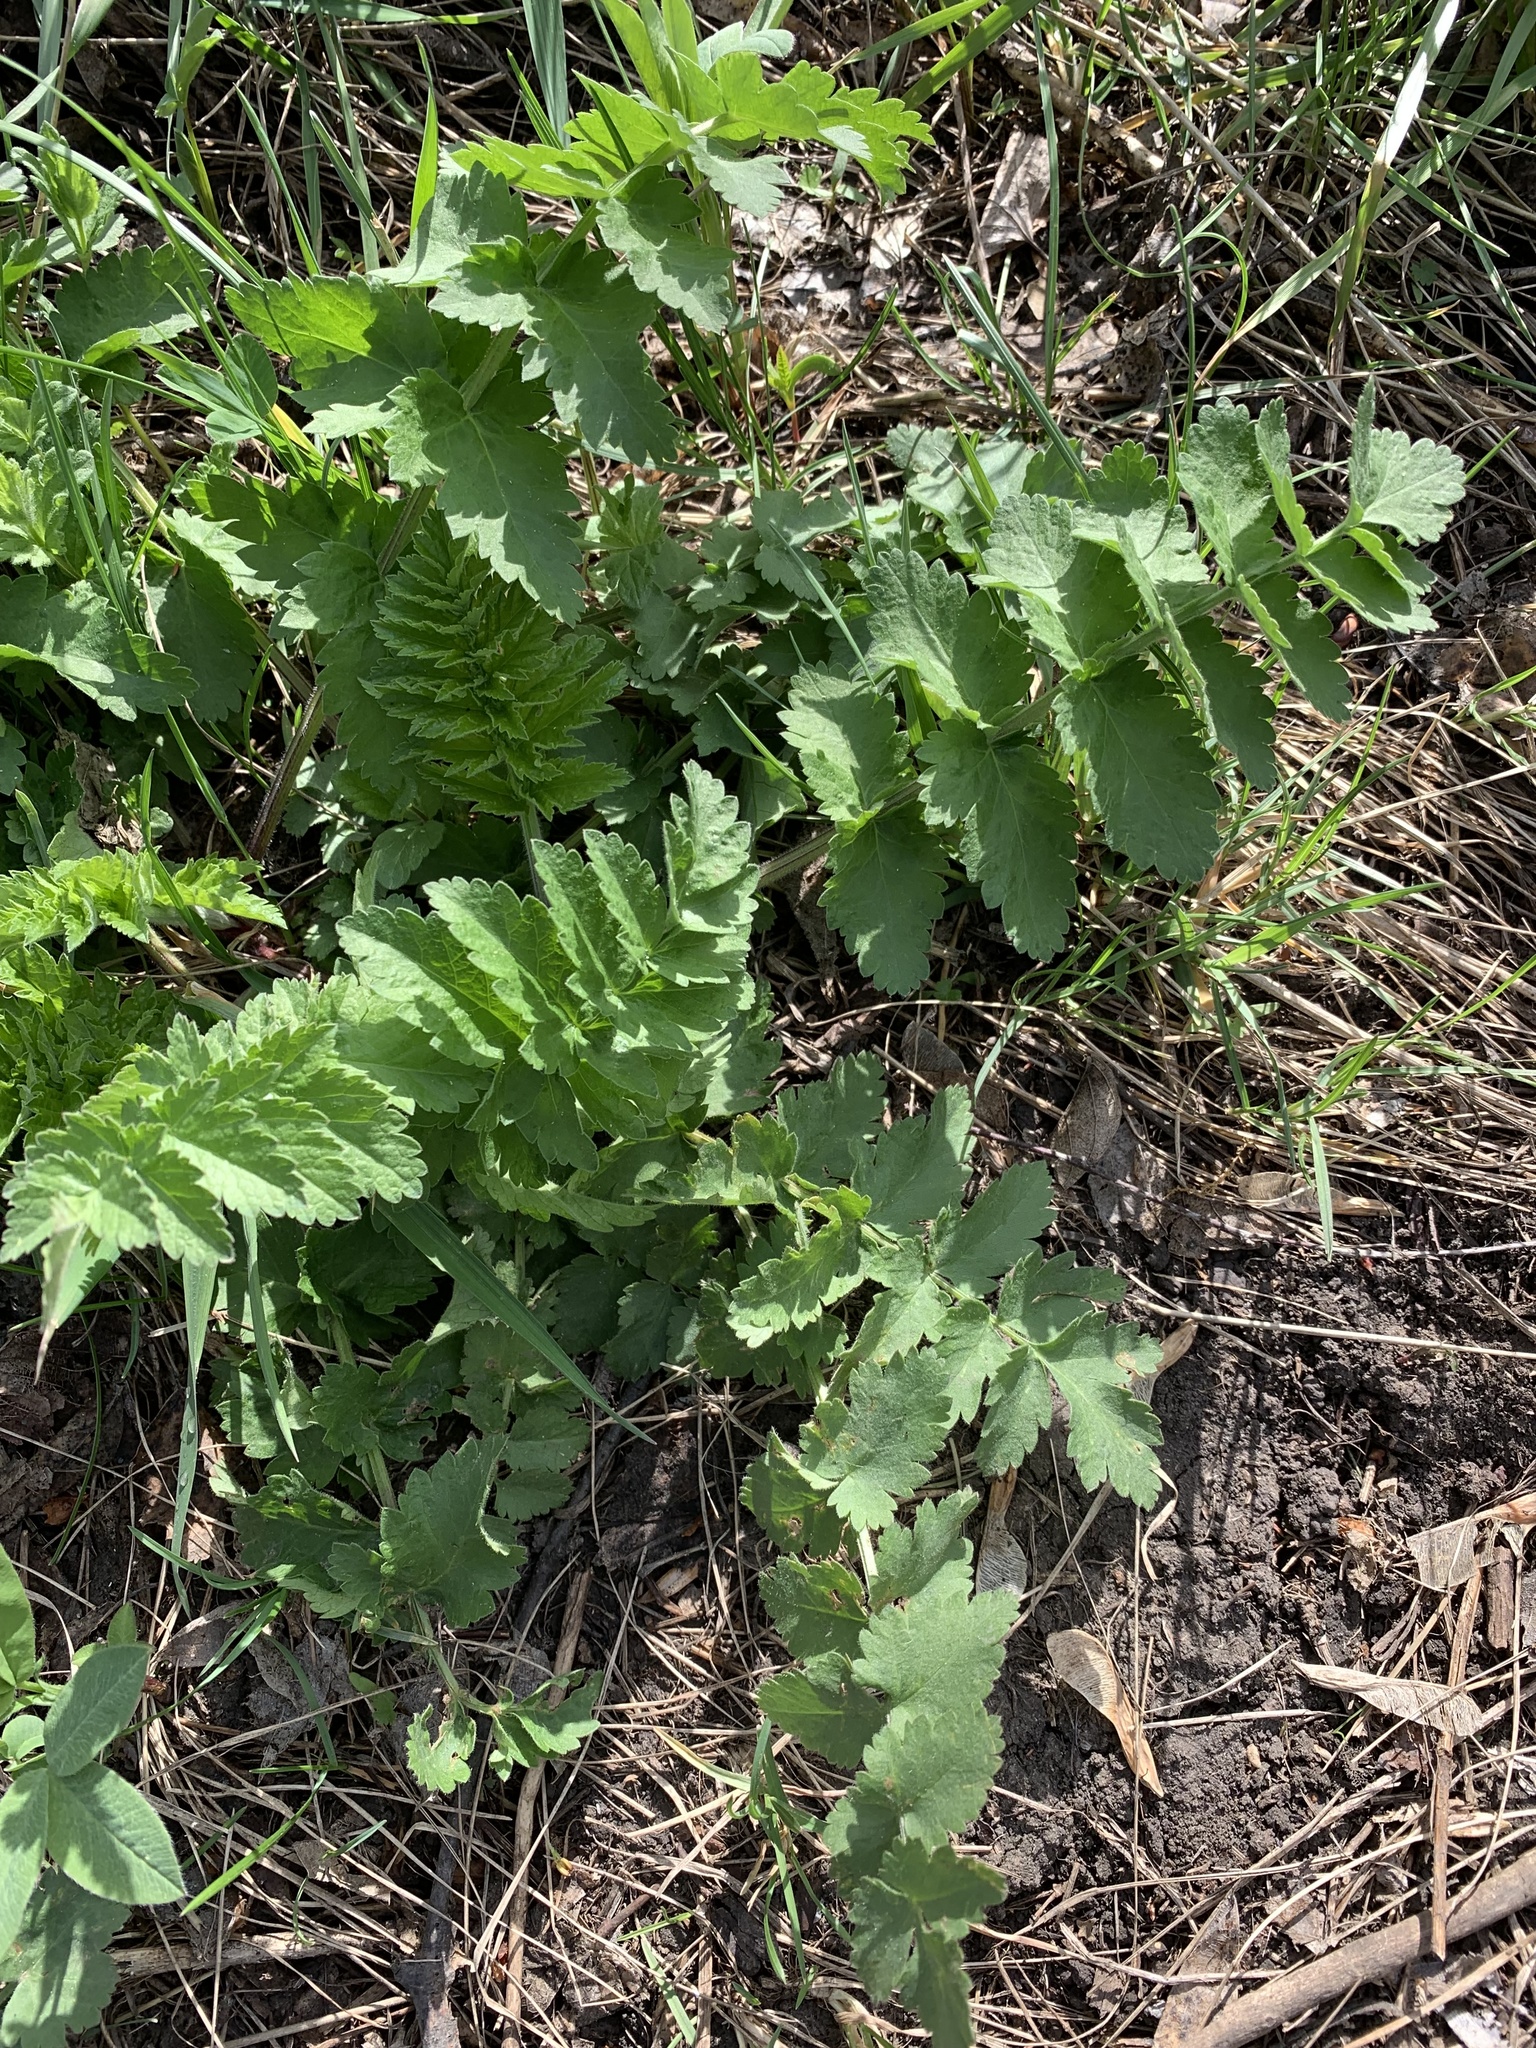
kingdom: Plantae
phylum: Tracheophyta
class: Magnoliopsida
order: Apiales
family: Apiaceae
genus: Pastinaca
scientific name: Pastinaca sativa
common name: Wild parsnip
